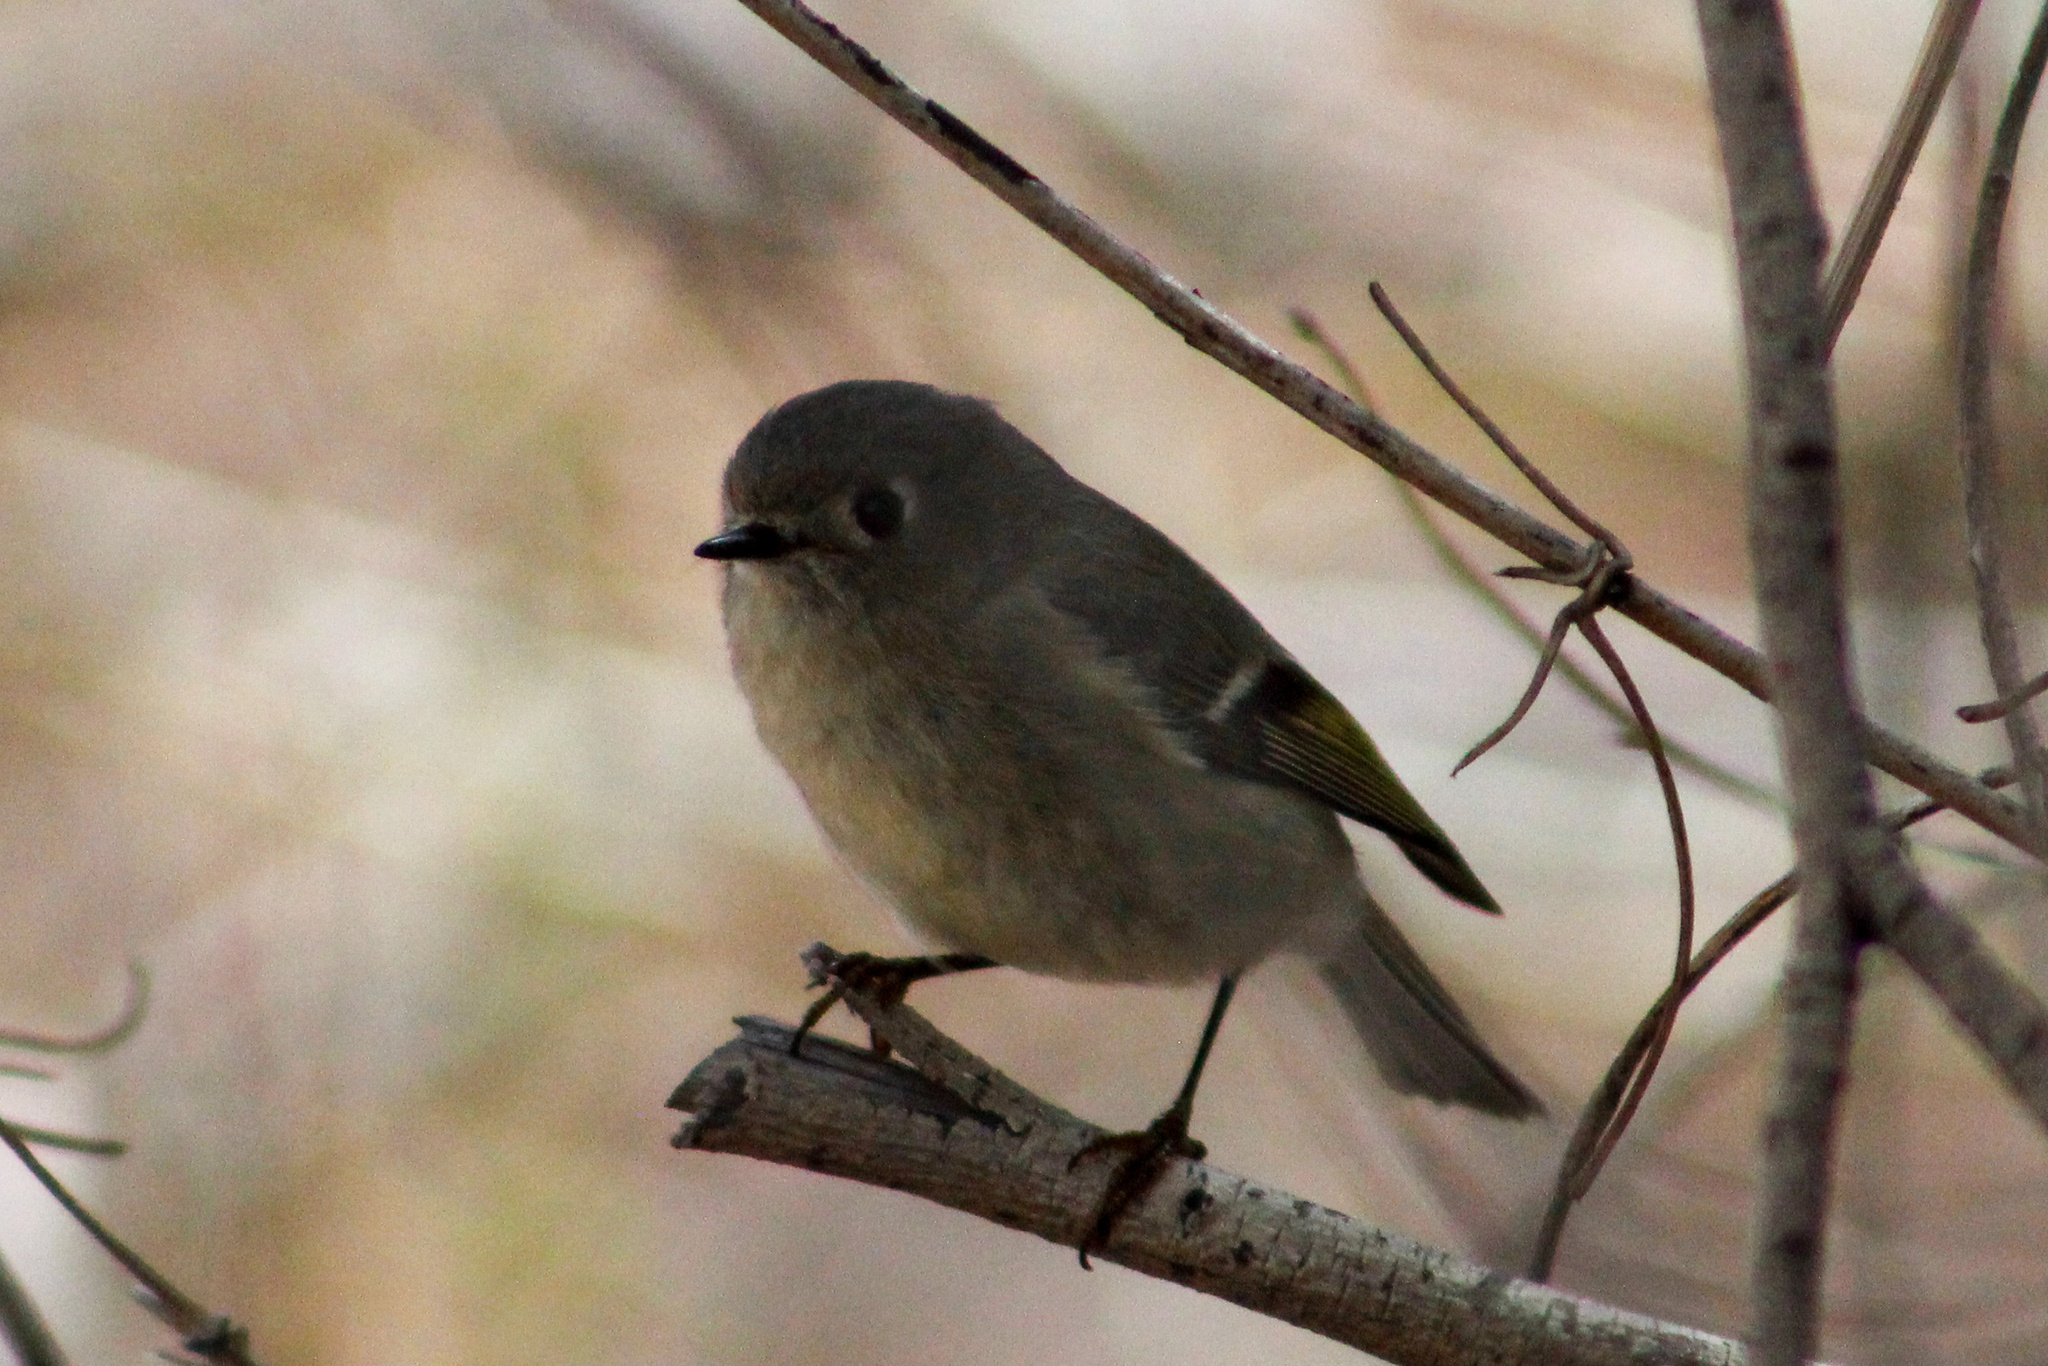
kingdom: Animalia
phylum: Chordata
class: Aves
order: Passeriformes
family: Regulidae
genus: Regulus
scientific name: Regulus calendula
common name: Ruby-crowned kinglet
